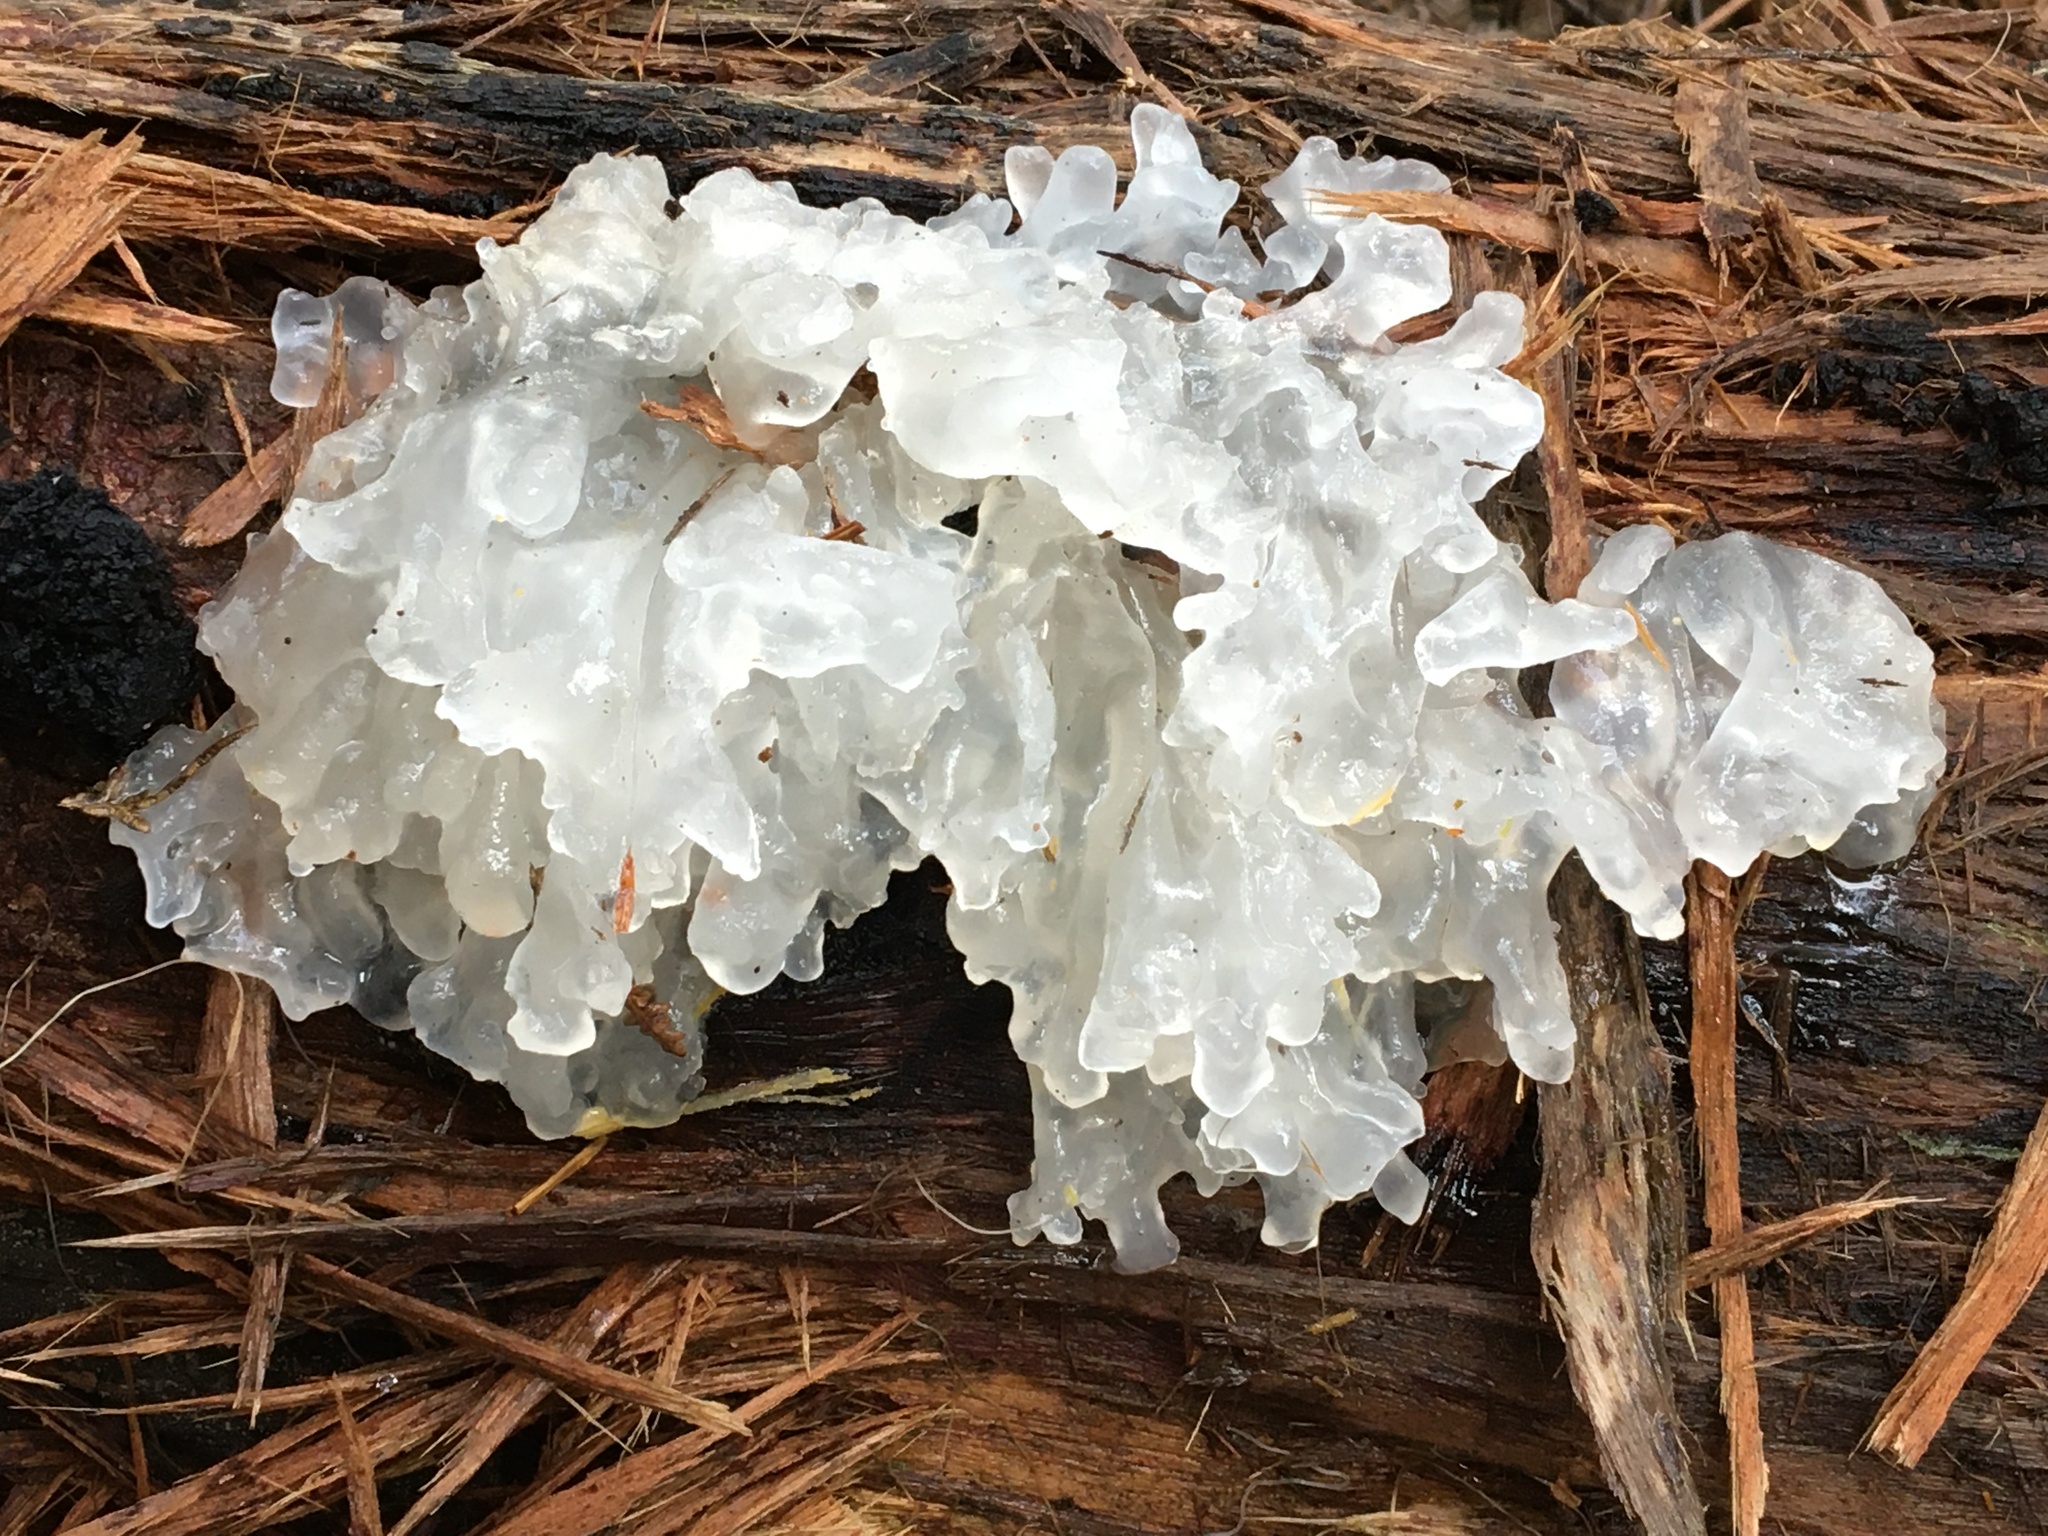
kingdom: Fungi
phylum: Basidiomycota
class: Tremellomycetes
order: Tremellales
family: Tremellaceae
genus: Tremella
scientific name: Tremella fuciformis
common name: Snow fungus
